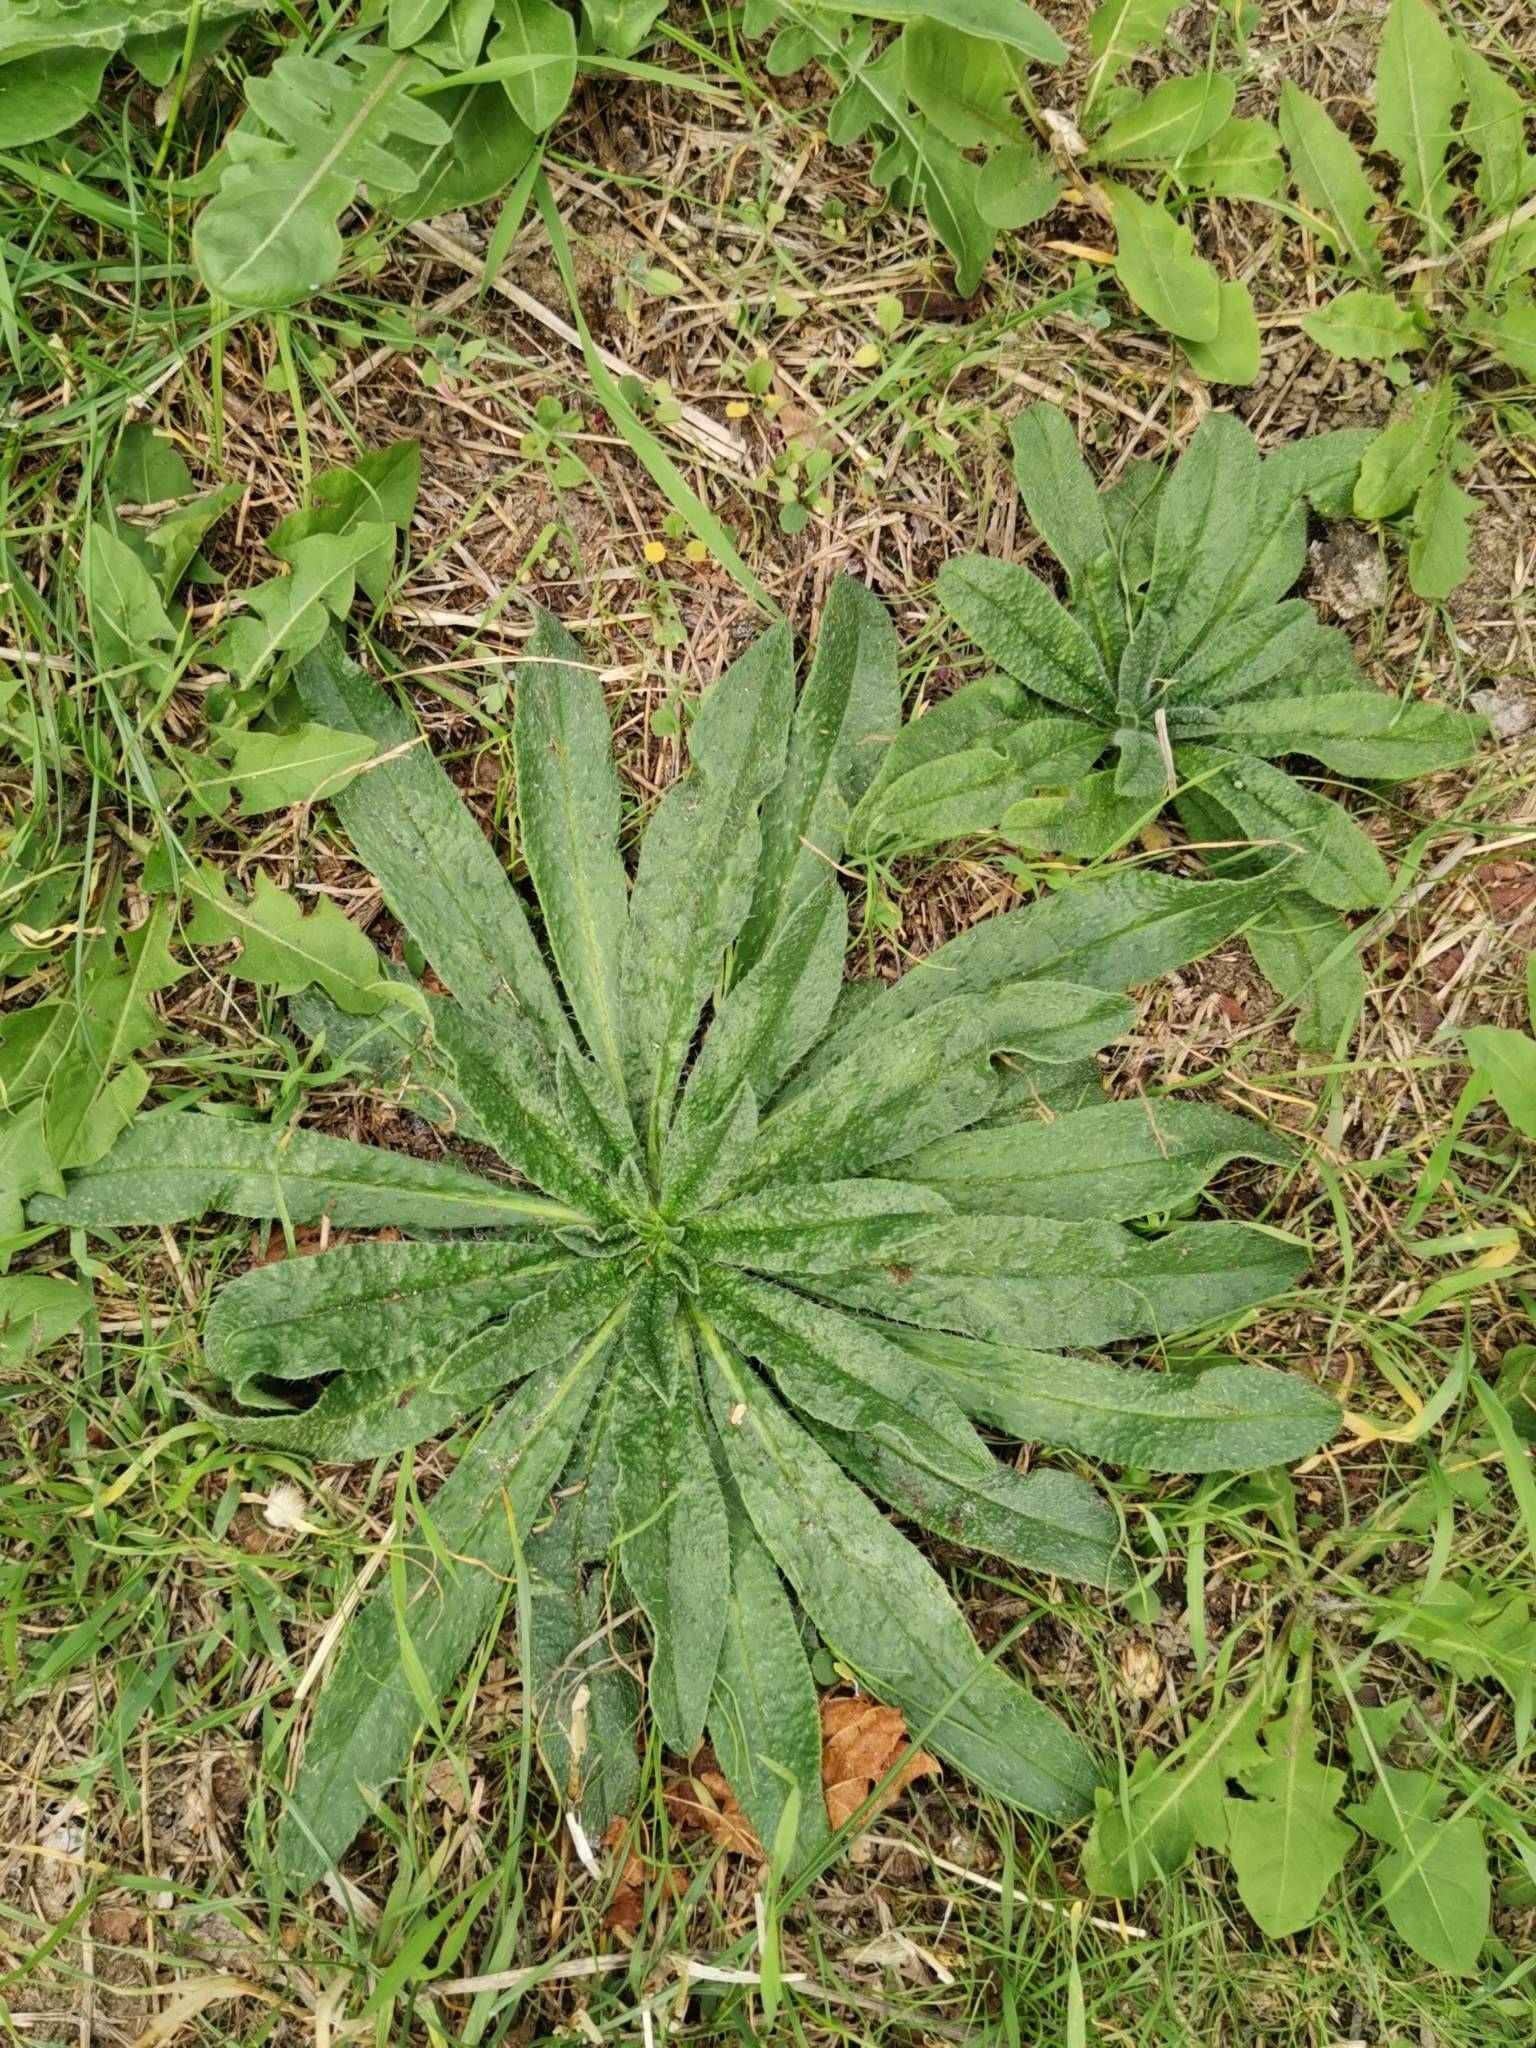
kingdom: Plantae
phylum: Tracheophyta
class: Magnoliopsida
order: Boraginales
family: Boraginaceae
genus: Echium
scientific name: Echium vulgare
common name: Common viper's bugloss
